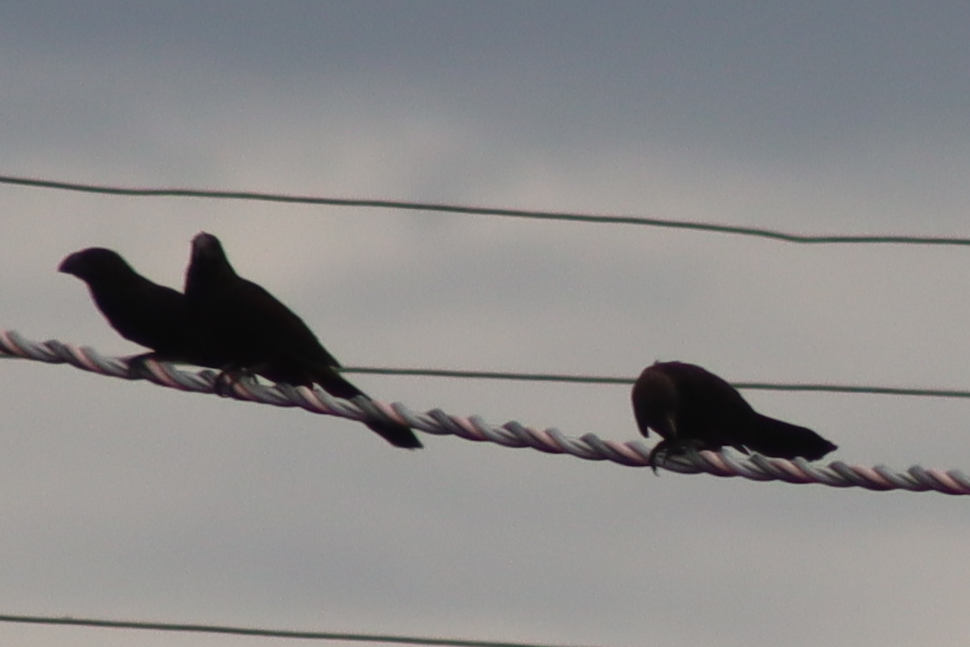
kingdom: Animalia
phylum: Chordata
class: Aves
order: Cuculiformes
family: Cuculidae
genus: Crotophaga
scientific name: Crotophaga ani
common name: Smooth-billed ani
